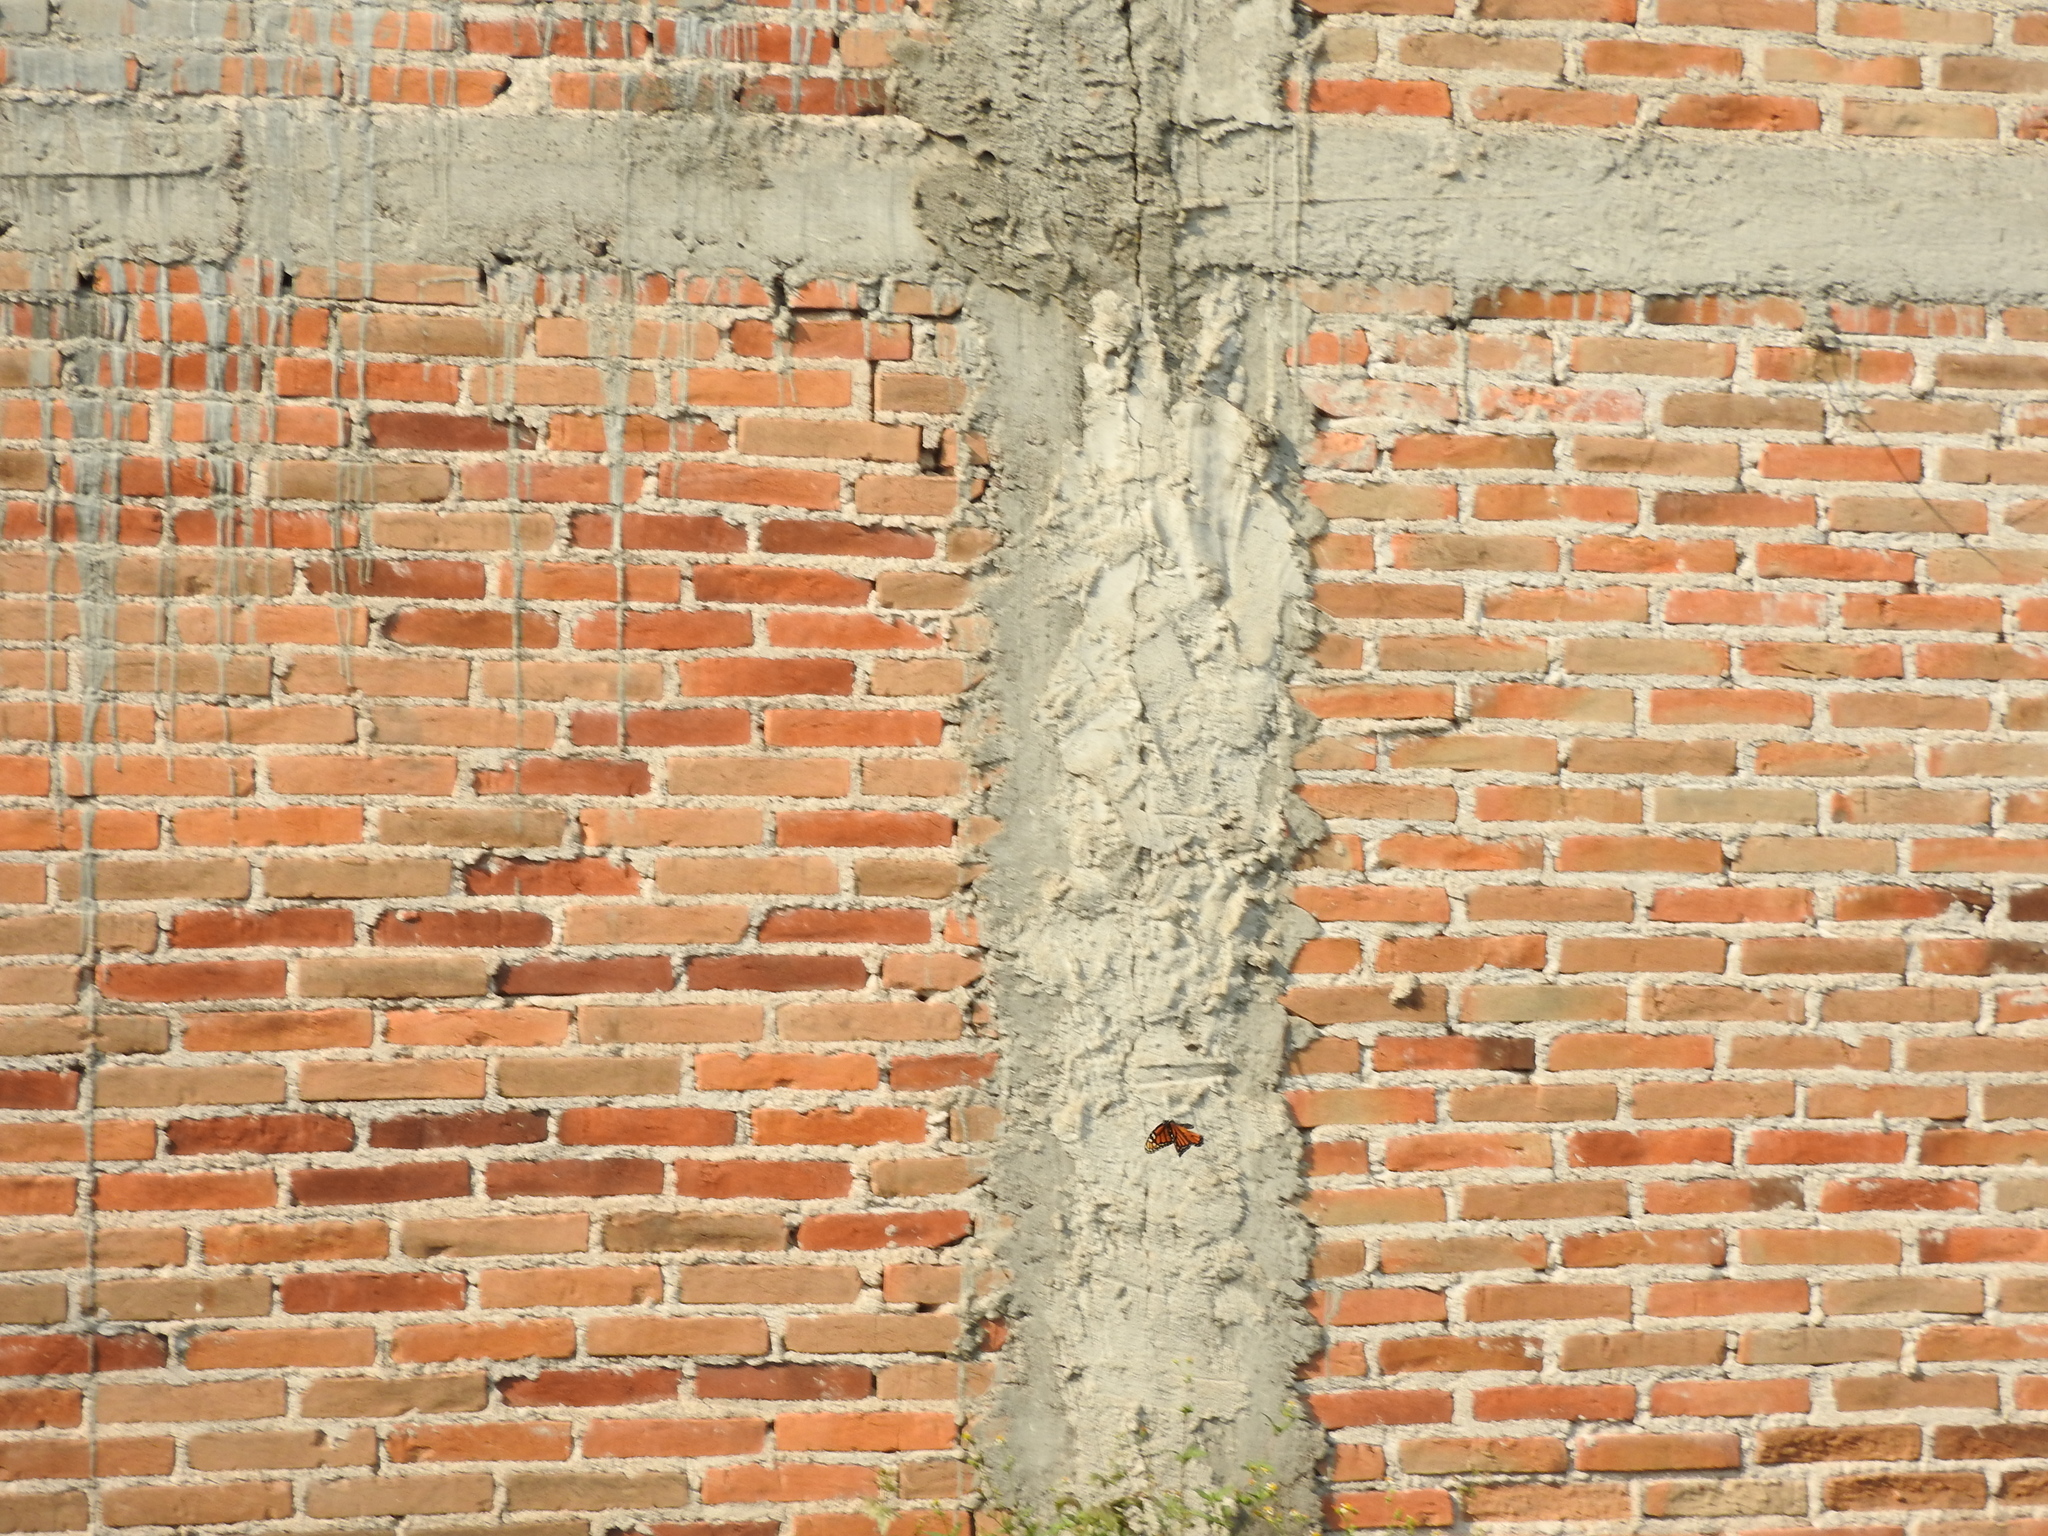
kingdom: Animalia
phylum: Arthropoda
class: Insecta
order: Lepidoptera
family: Nymphalidae
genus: Danaus
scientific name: Danaus plexippus
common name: Monarch
